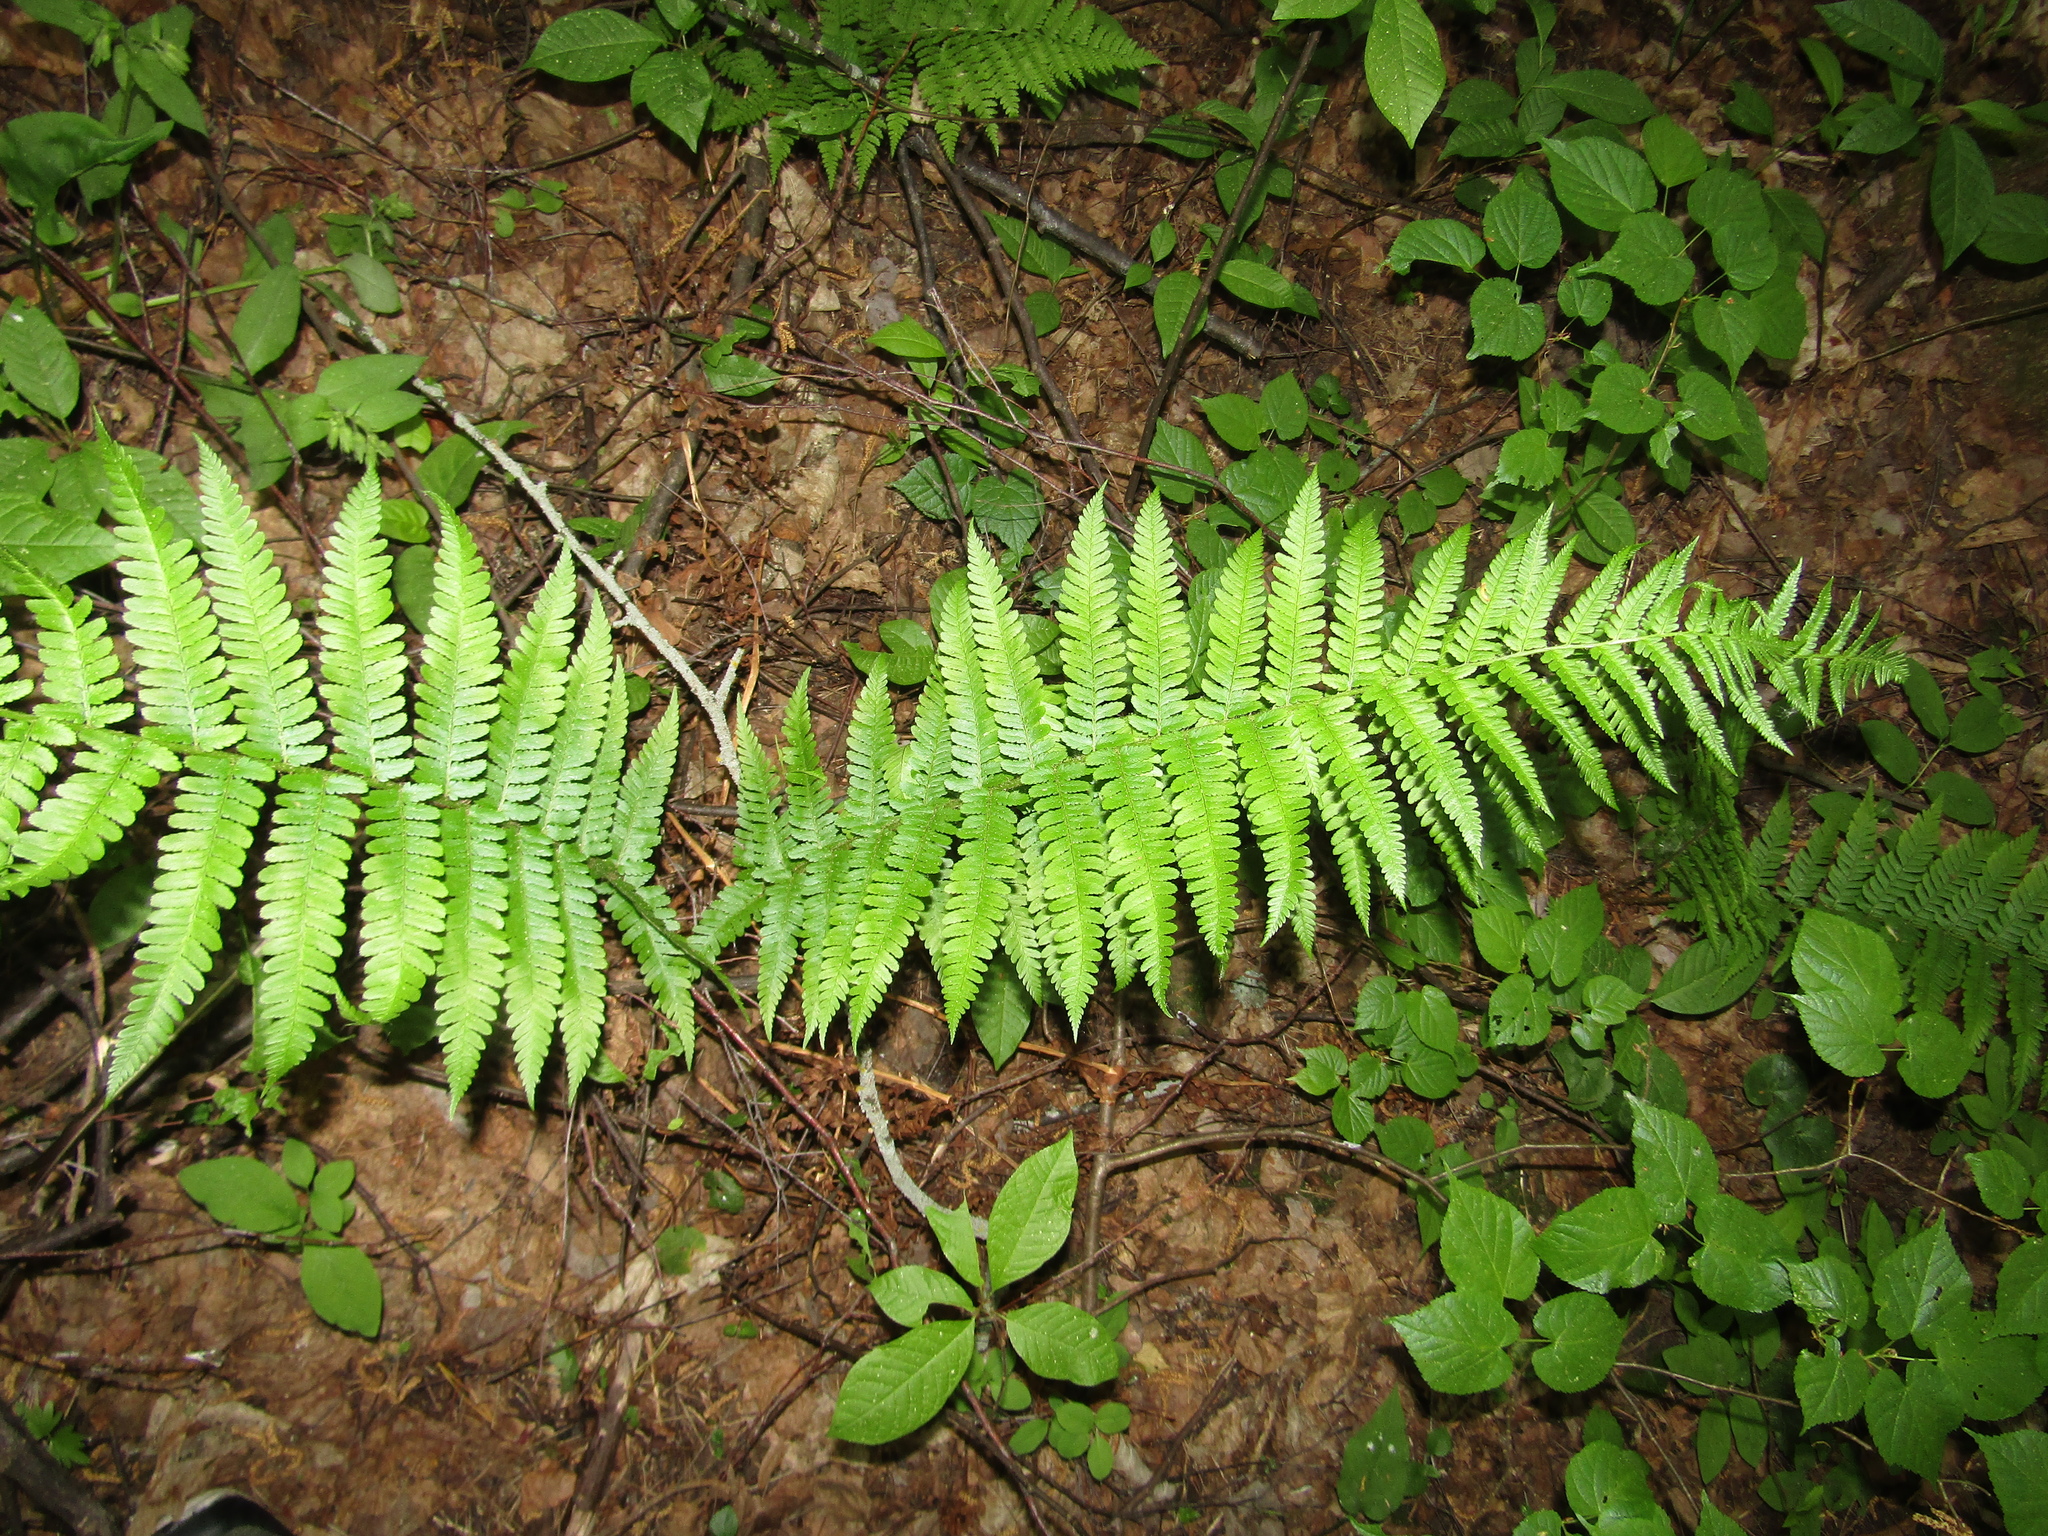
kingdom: Plantae
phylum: Tracheophyta
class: Polypodiopsida
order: Polypodiales
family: Dryopteridaceae
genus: Dryopteris
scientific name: Dryopteris filix-mas
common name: Male fern
